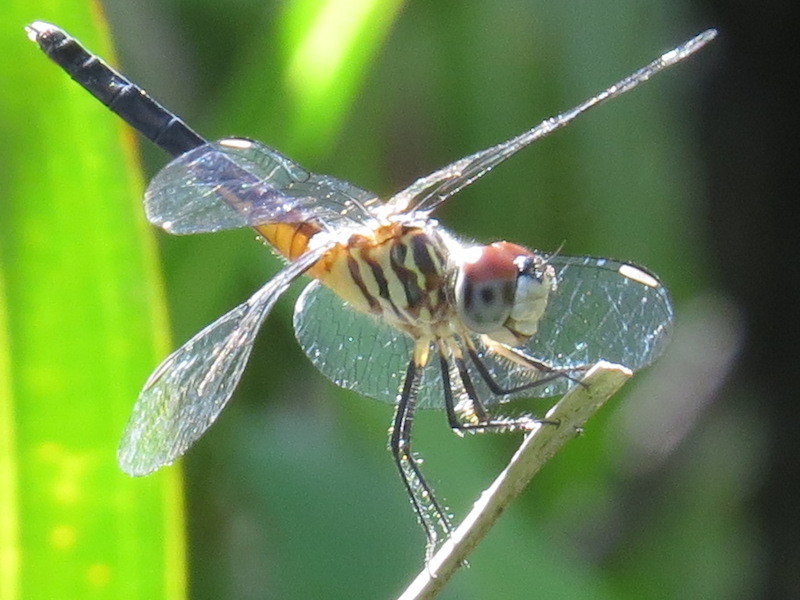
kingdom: Animalia
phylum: Arthropoda
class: Insecta
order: Odonata
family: Libellulidae
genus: Pachydiplax
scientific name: Pachydiplax longipennis
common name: Blue dasher
